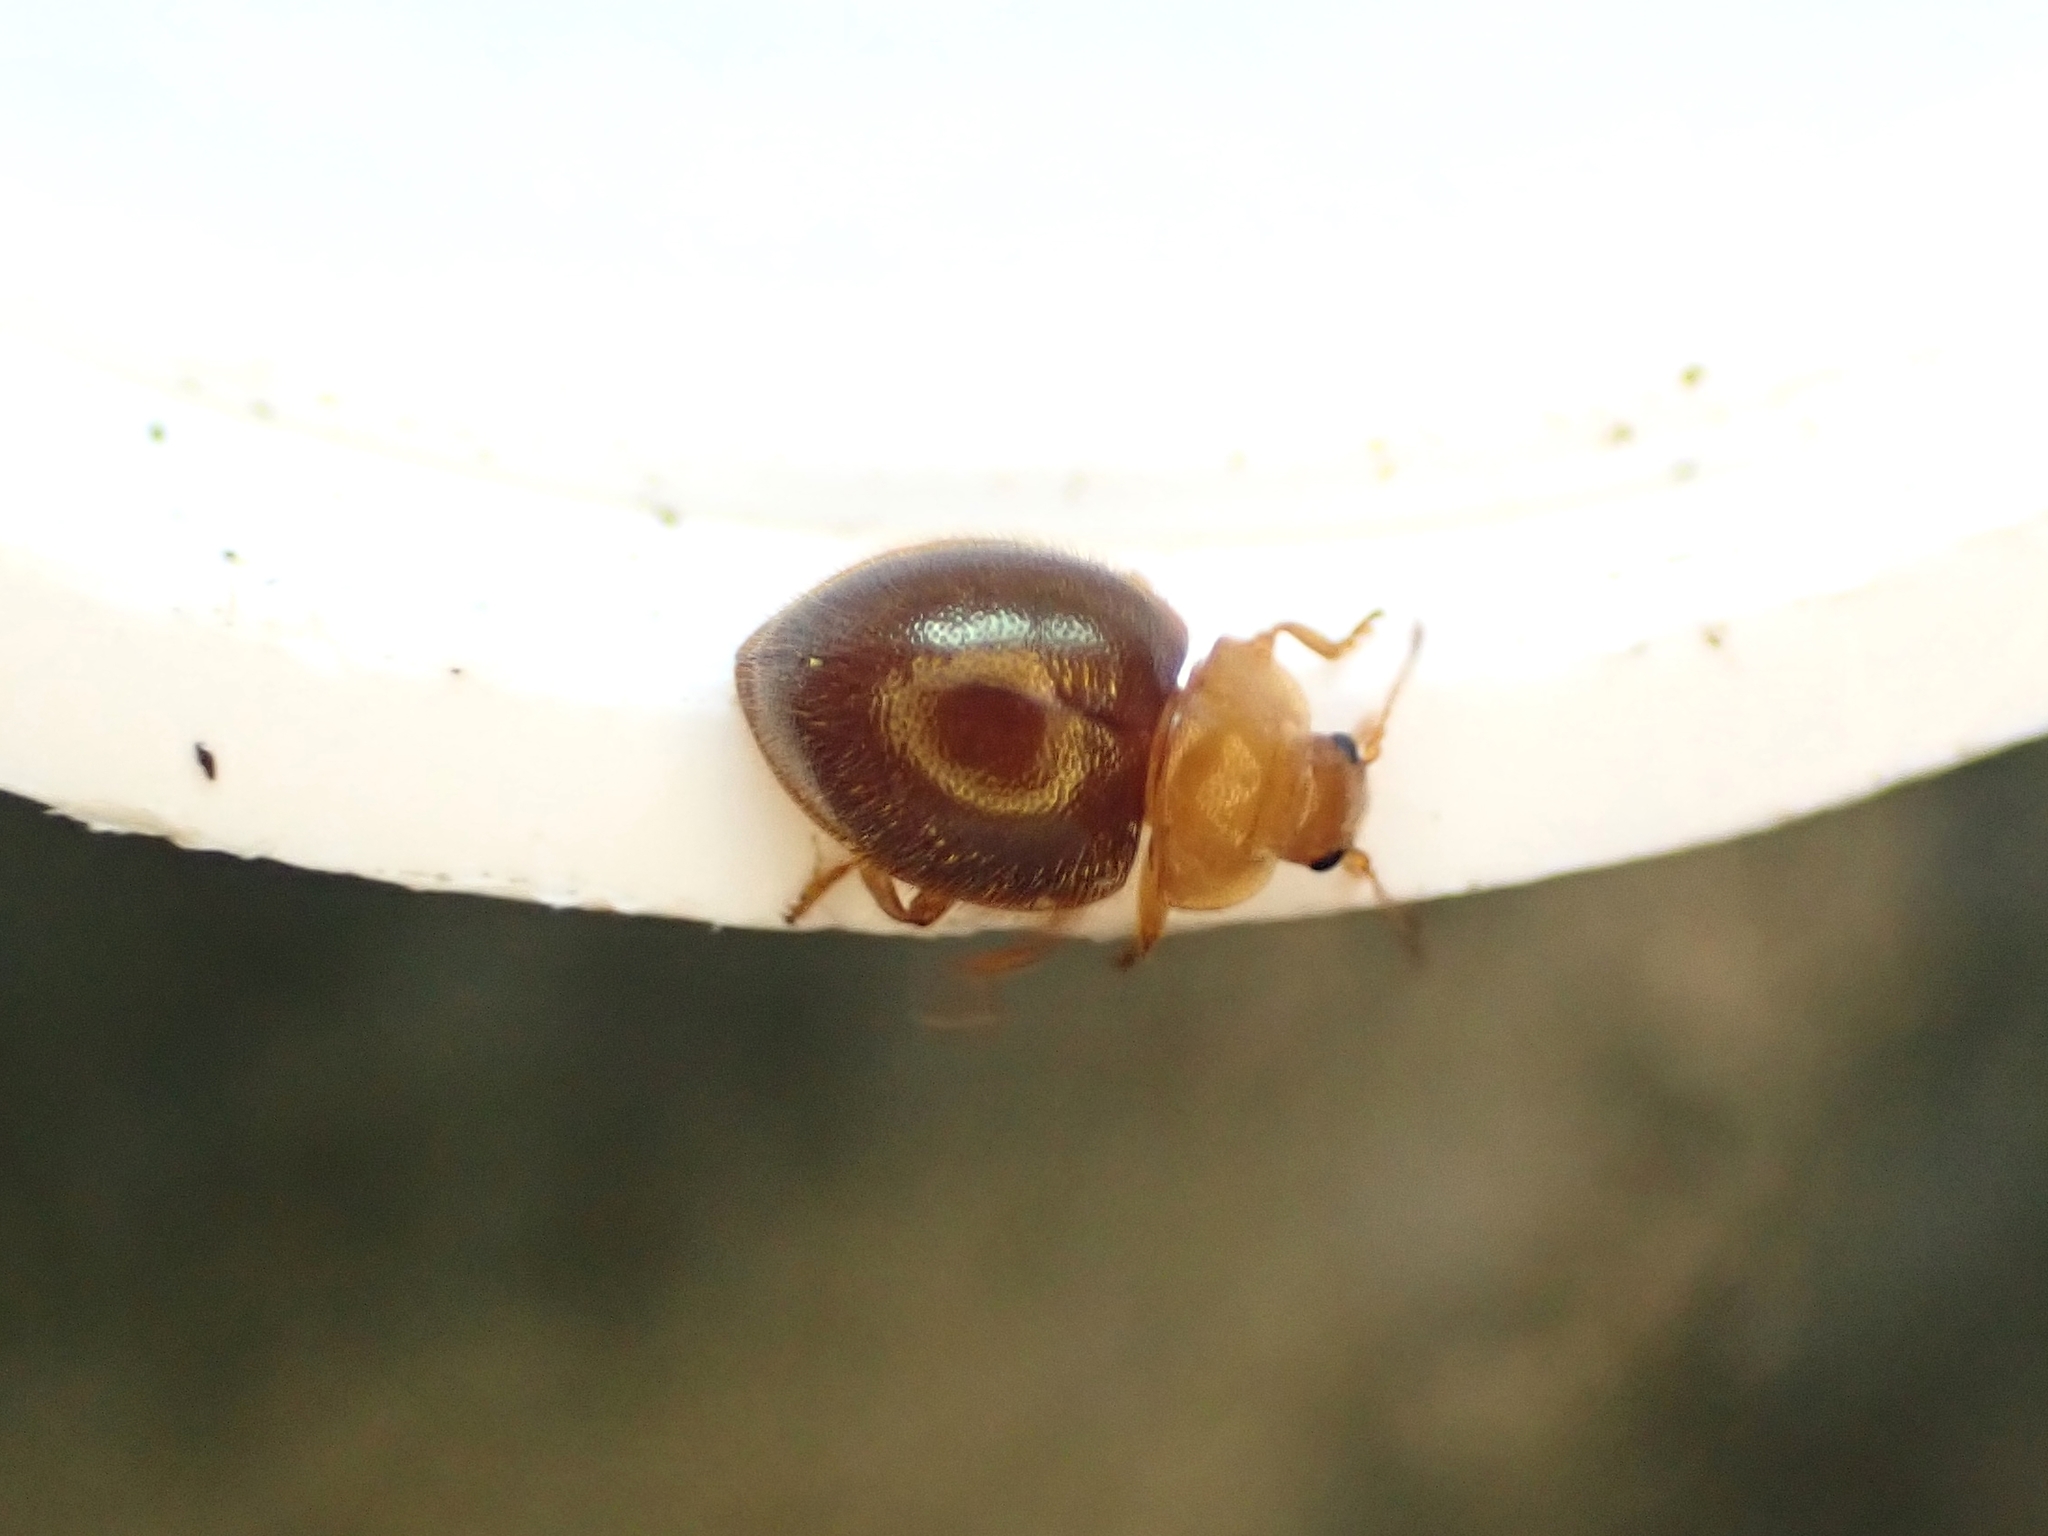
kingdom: Animalia
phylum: Arthropoda
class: Insecta
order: Coleoptera
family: Coccinellidae
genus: Adoxellus
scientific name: Adoxellus
